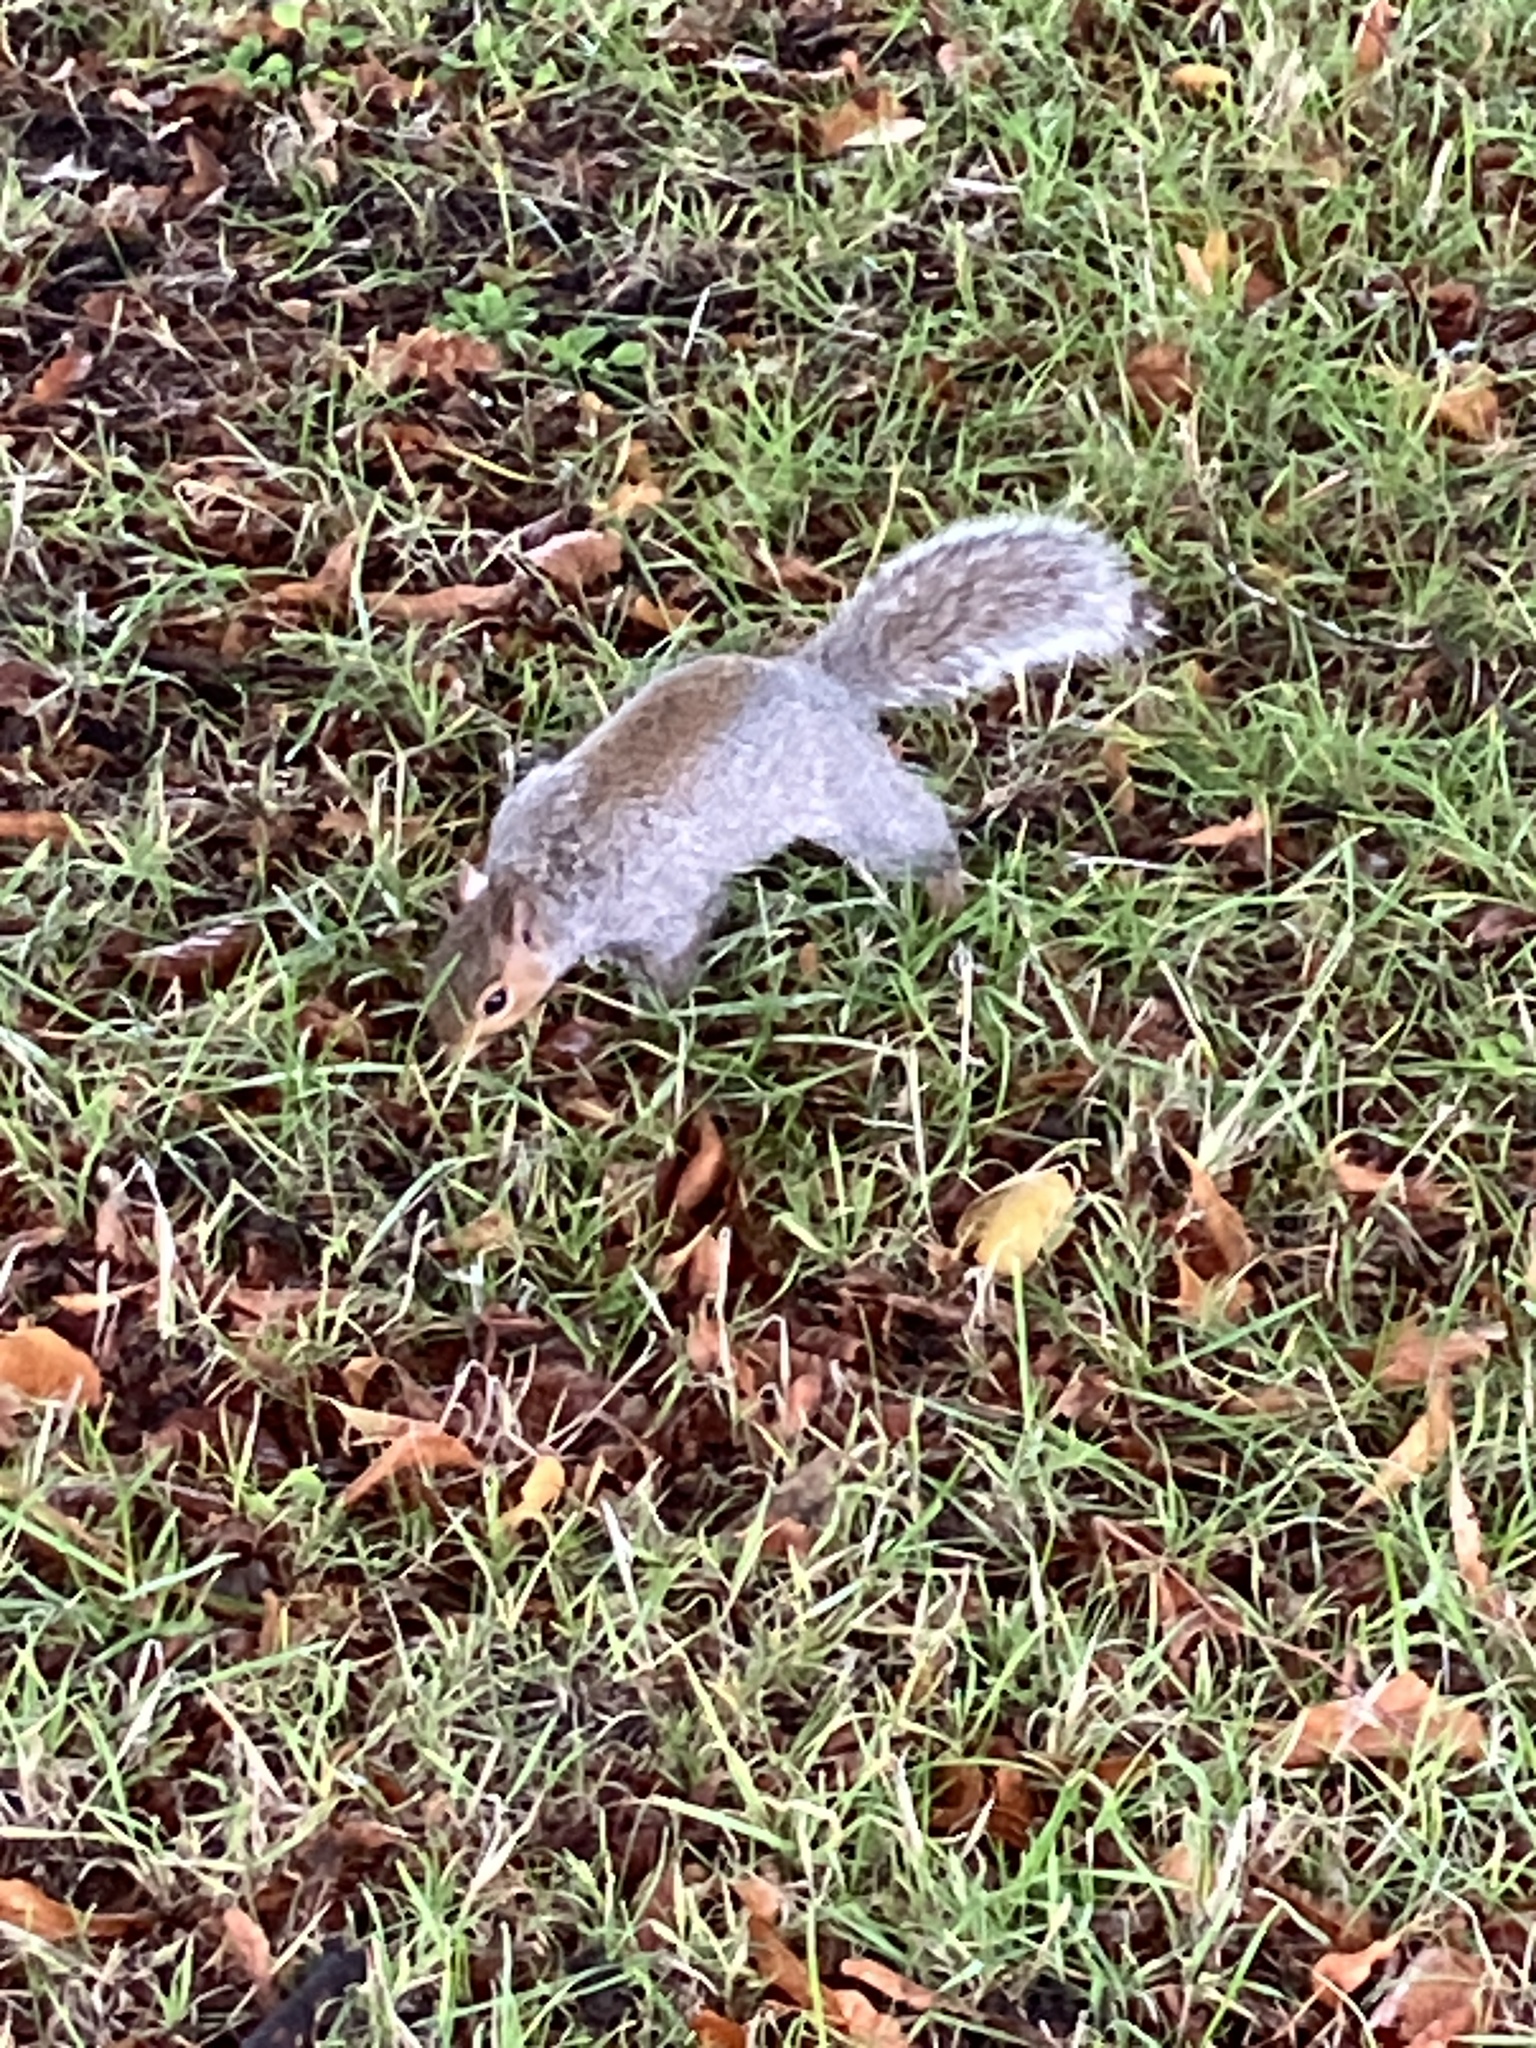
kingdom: Animalia
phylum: Chordata
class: Mammalia
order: Rodentia
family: Sciuridae
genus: Sciurus
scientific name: Sciurus carolinensis
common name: Eastern gray squirrel
